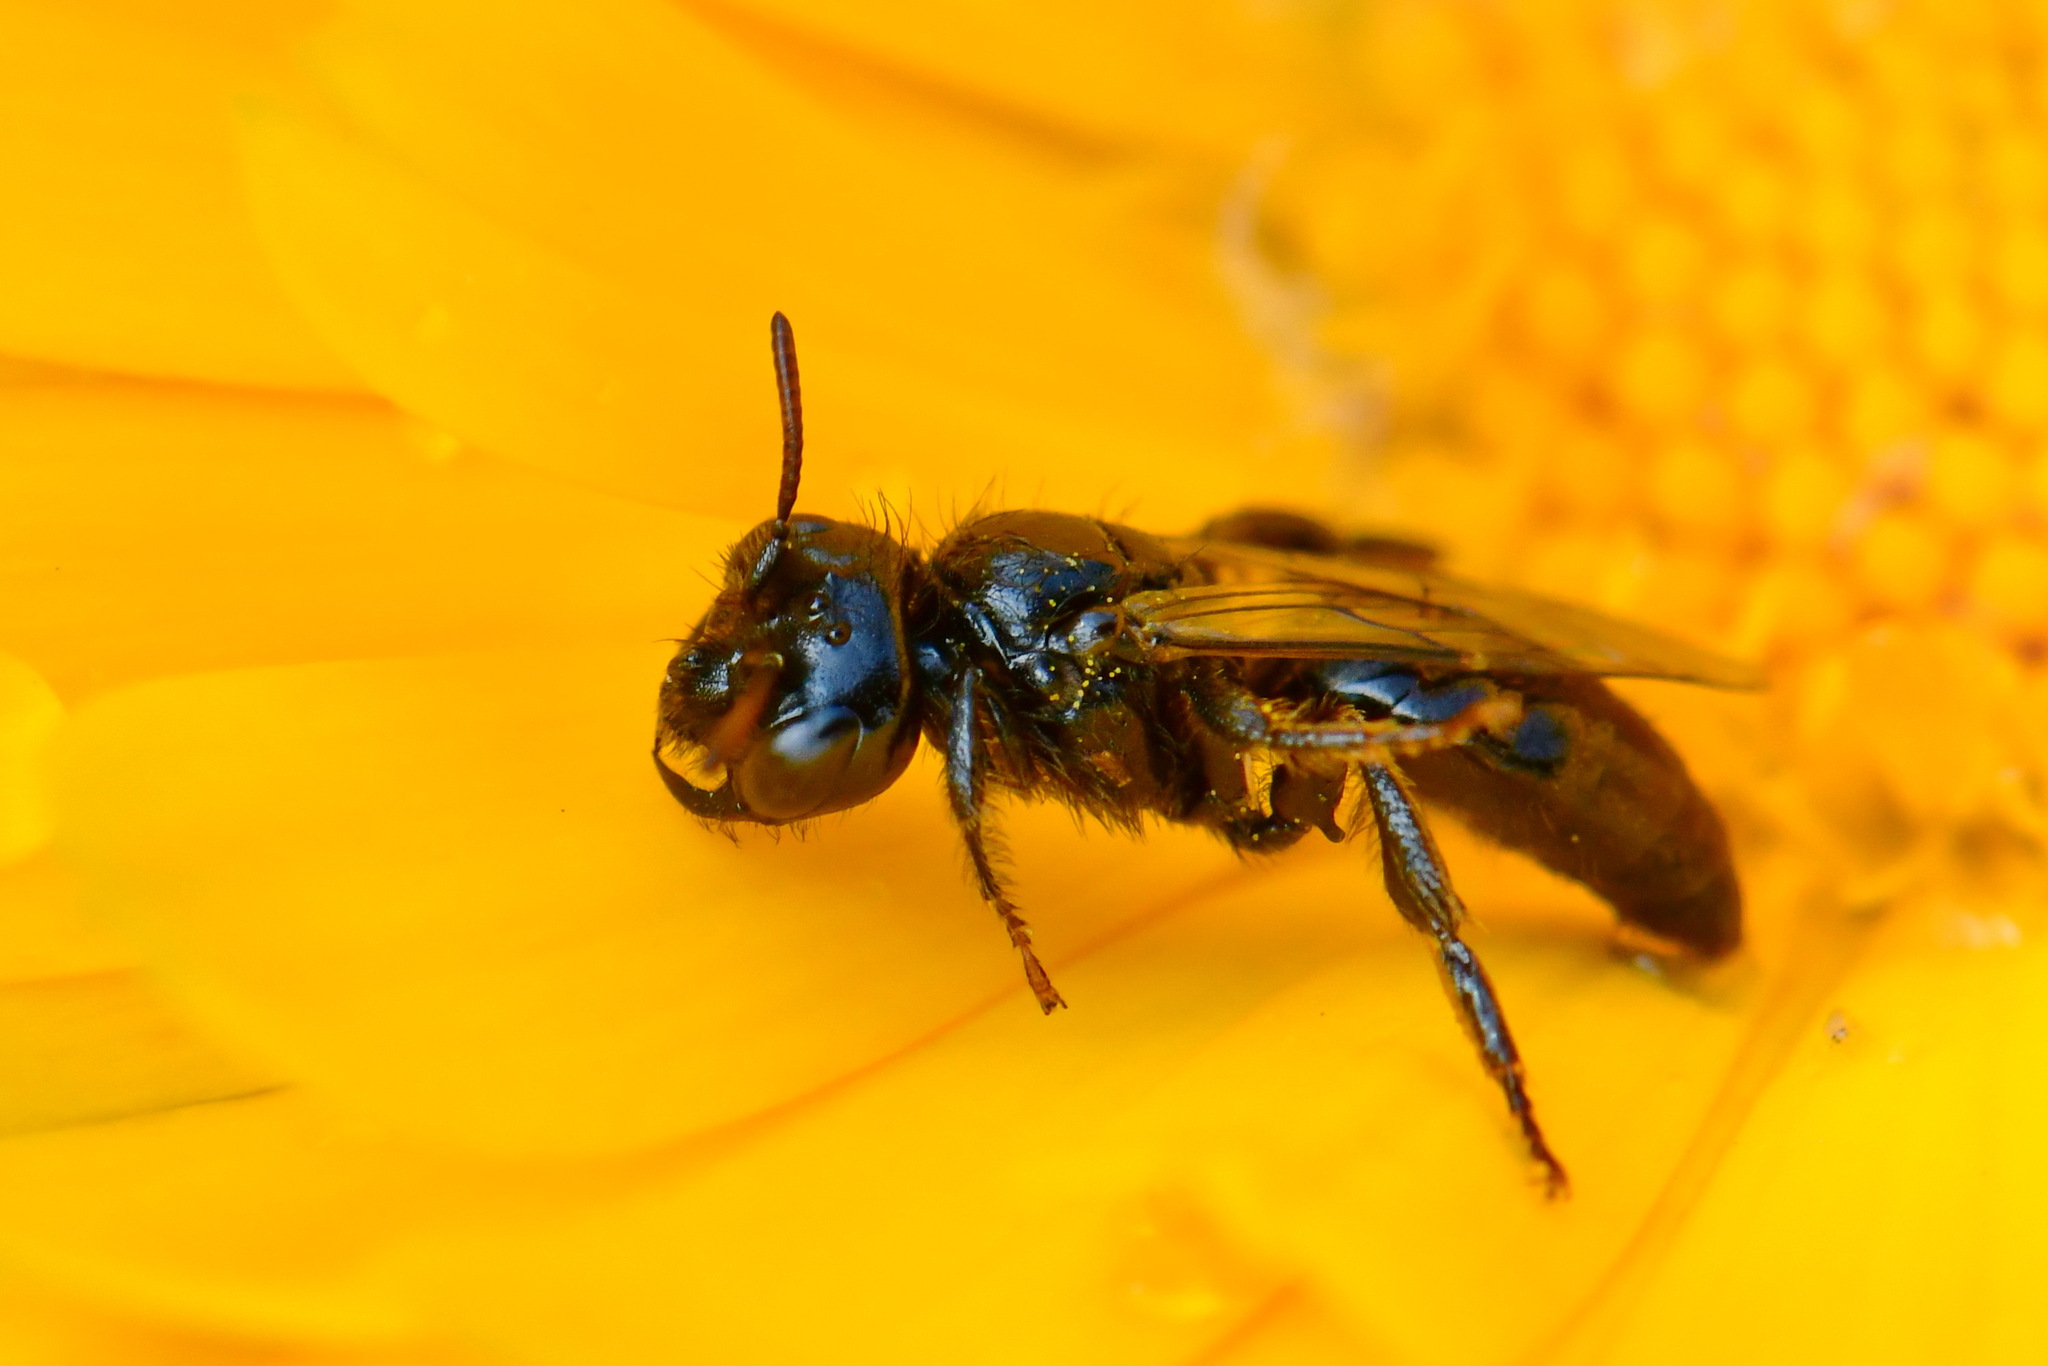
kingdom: Animalia
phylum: Arthropoda
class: Insecta
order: Hymenoptera
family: Andrenidae
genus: Panurgus
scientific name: Panurgus calcaratus
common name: Small shaggy bee
